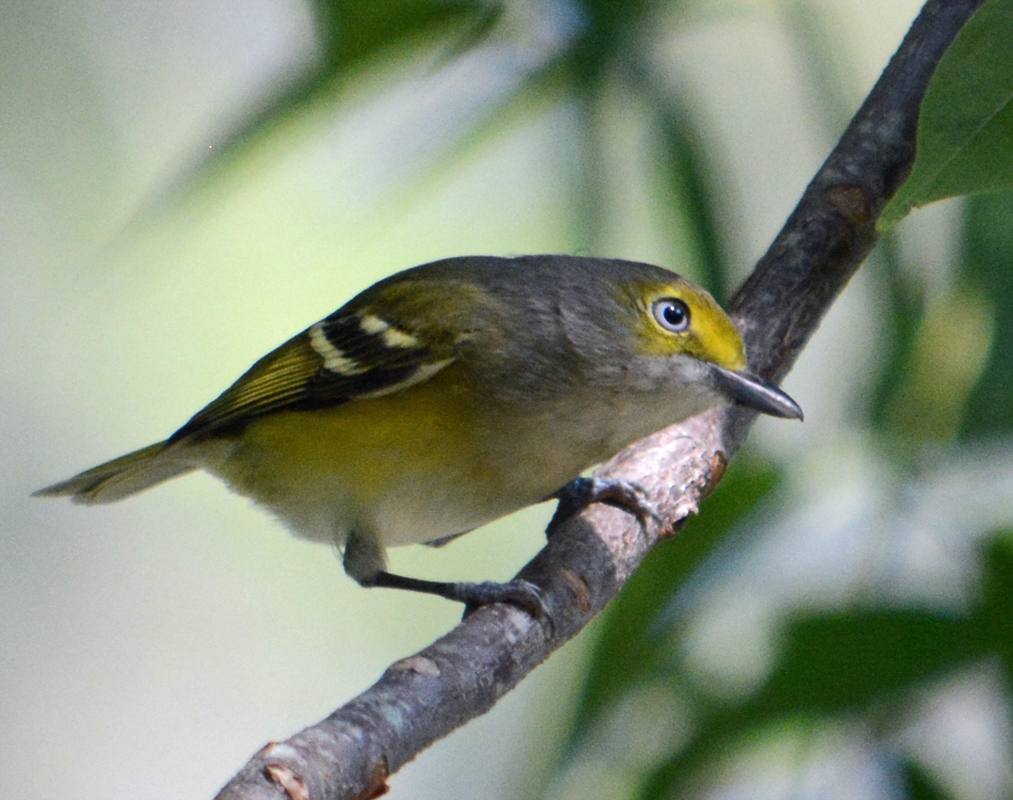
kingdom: Animalia
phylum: Chordata
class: Aves
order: Passeriformes
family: Vireonidae
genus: Vireo
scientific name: Vireo griseus
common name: White-eyed vireo
